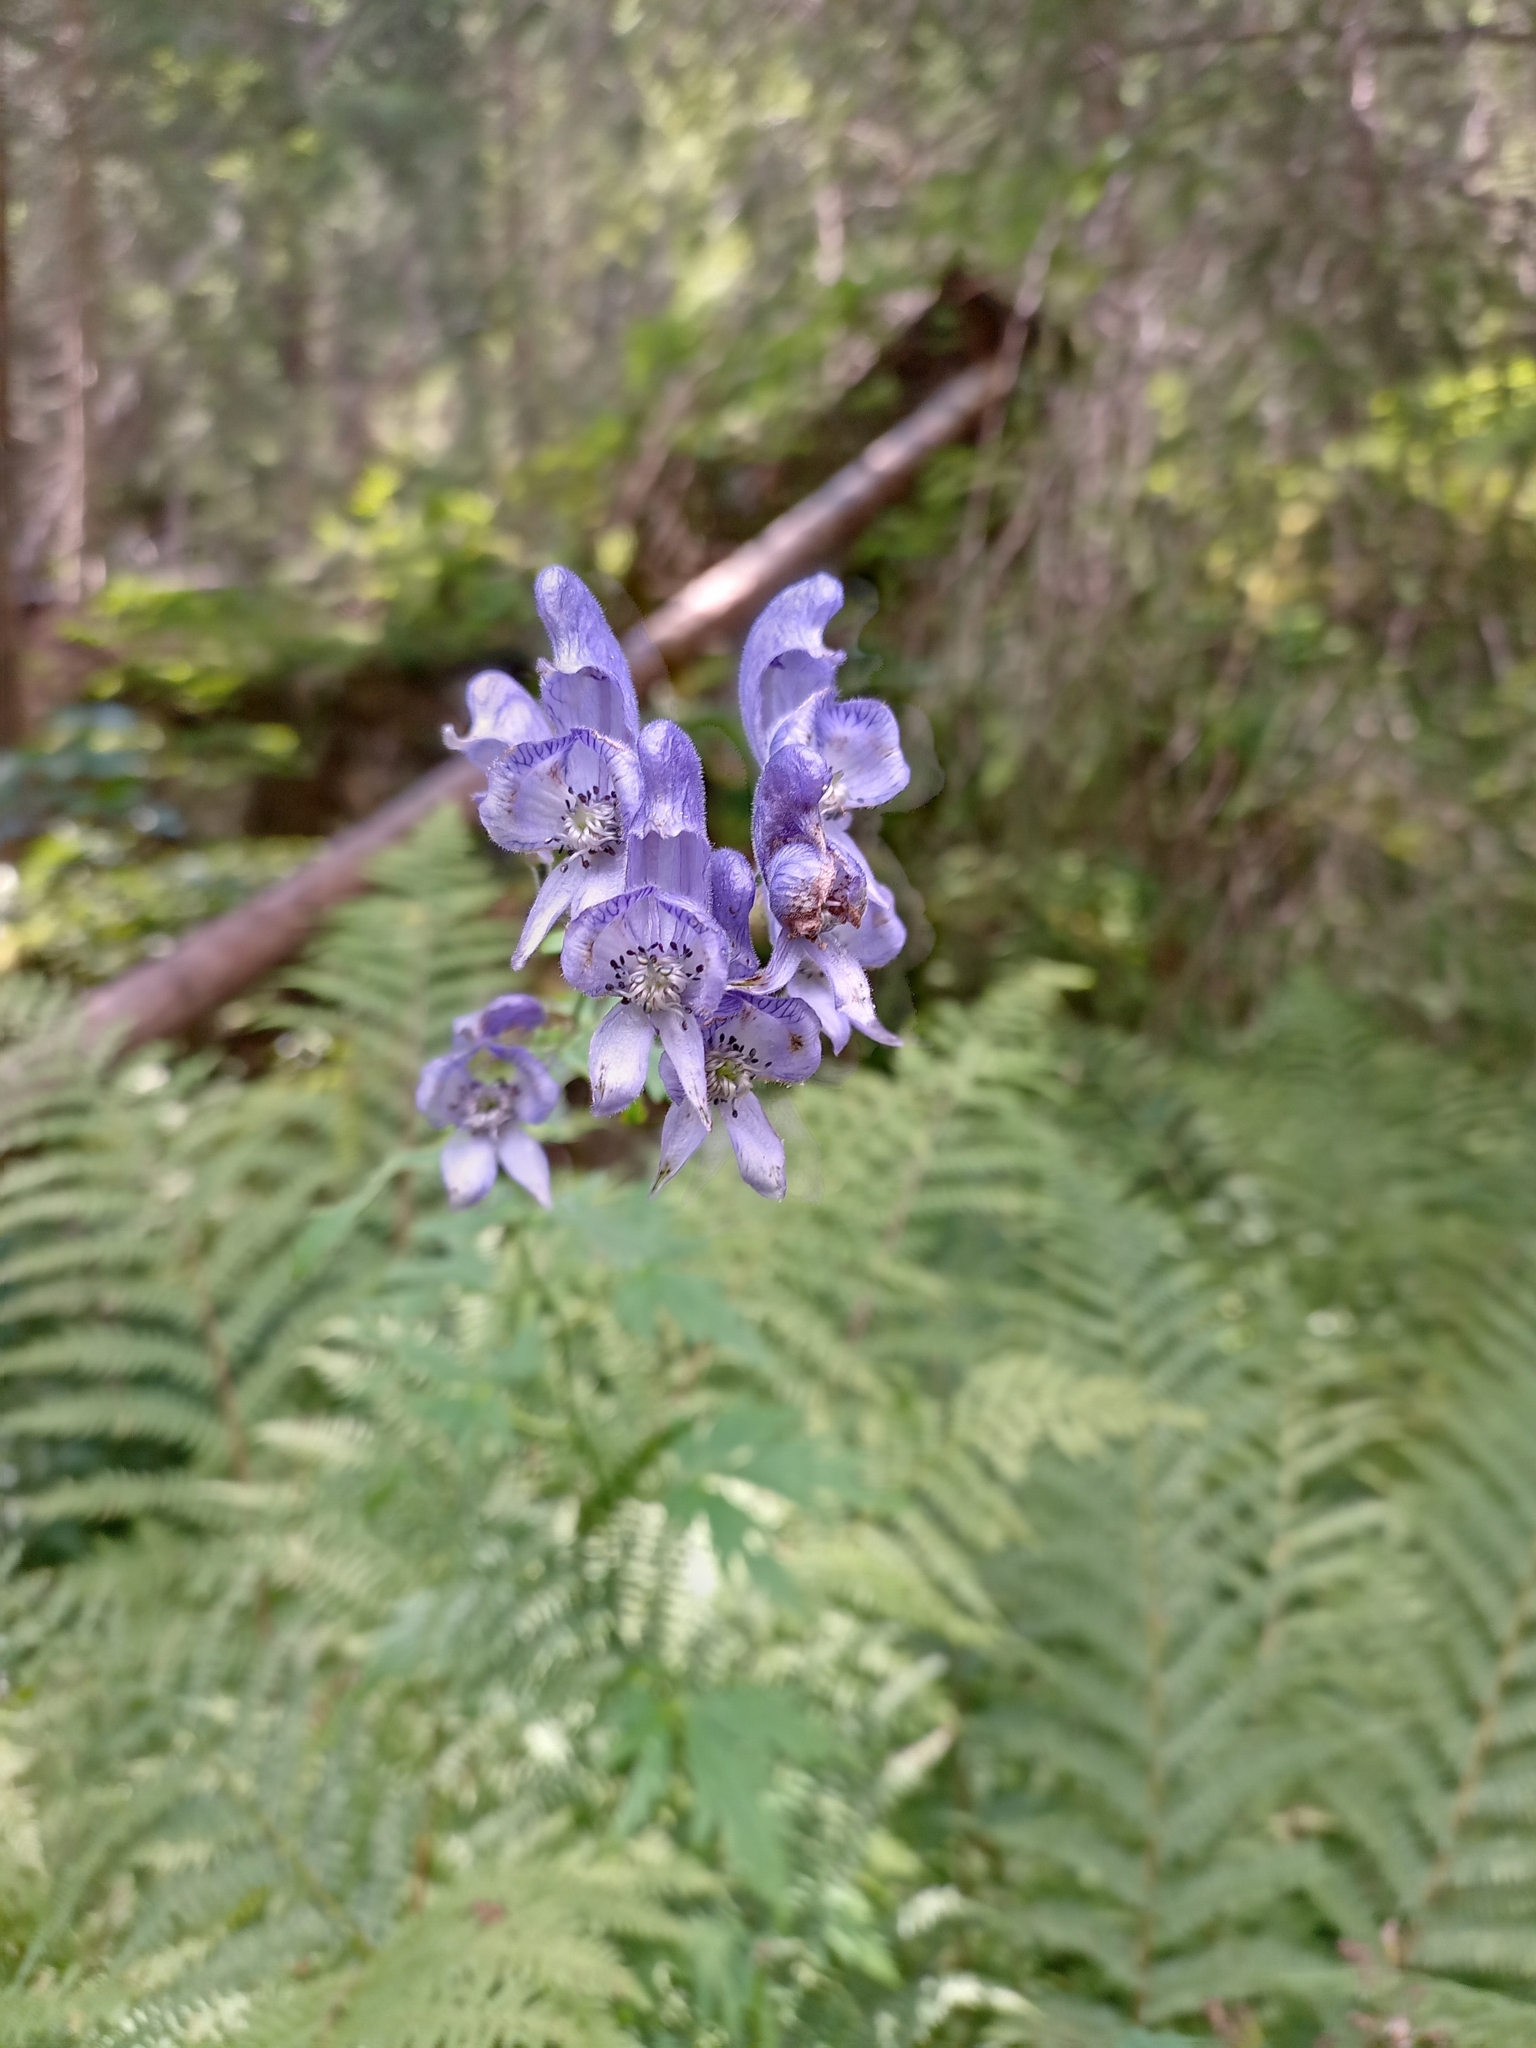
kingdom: Plantae
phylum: Tracheophyta
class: Magnoliopsida
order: Ranunculales
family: Ranunculaceae
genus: Aconitum
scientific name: Aconitum degenii
